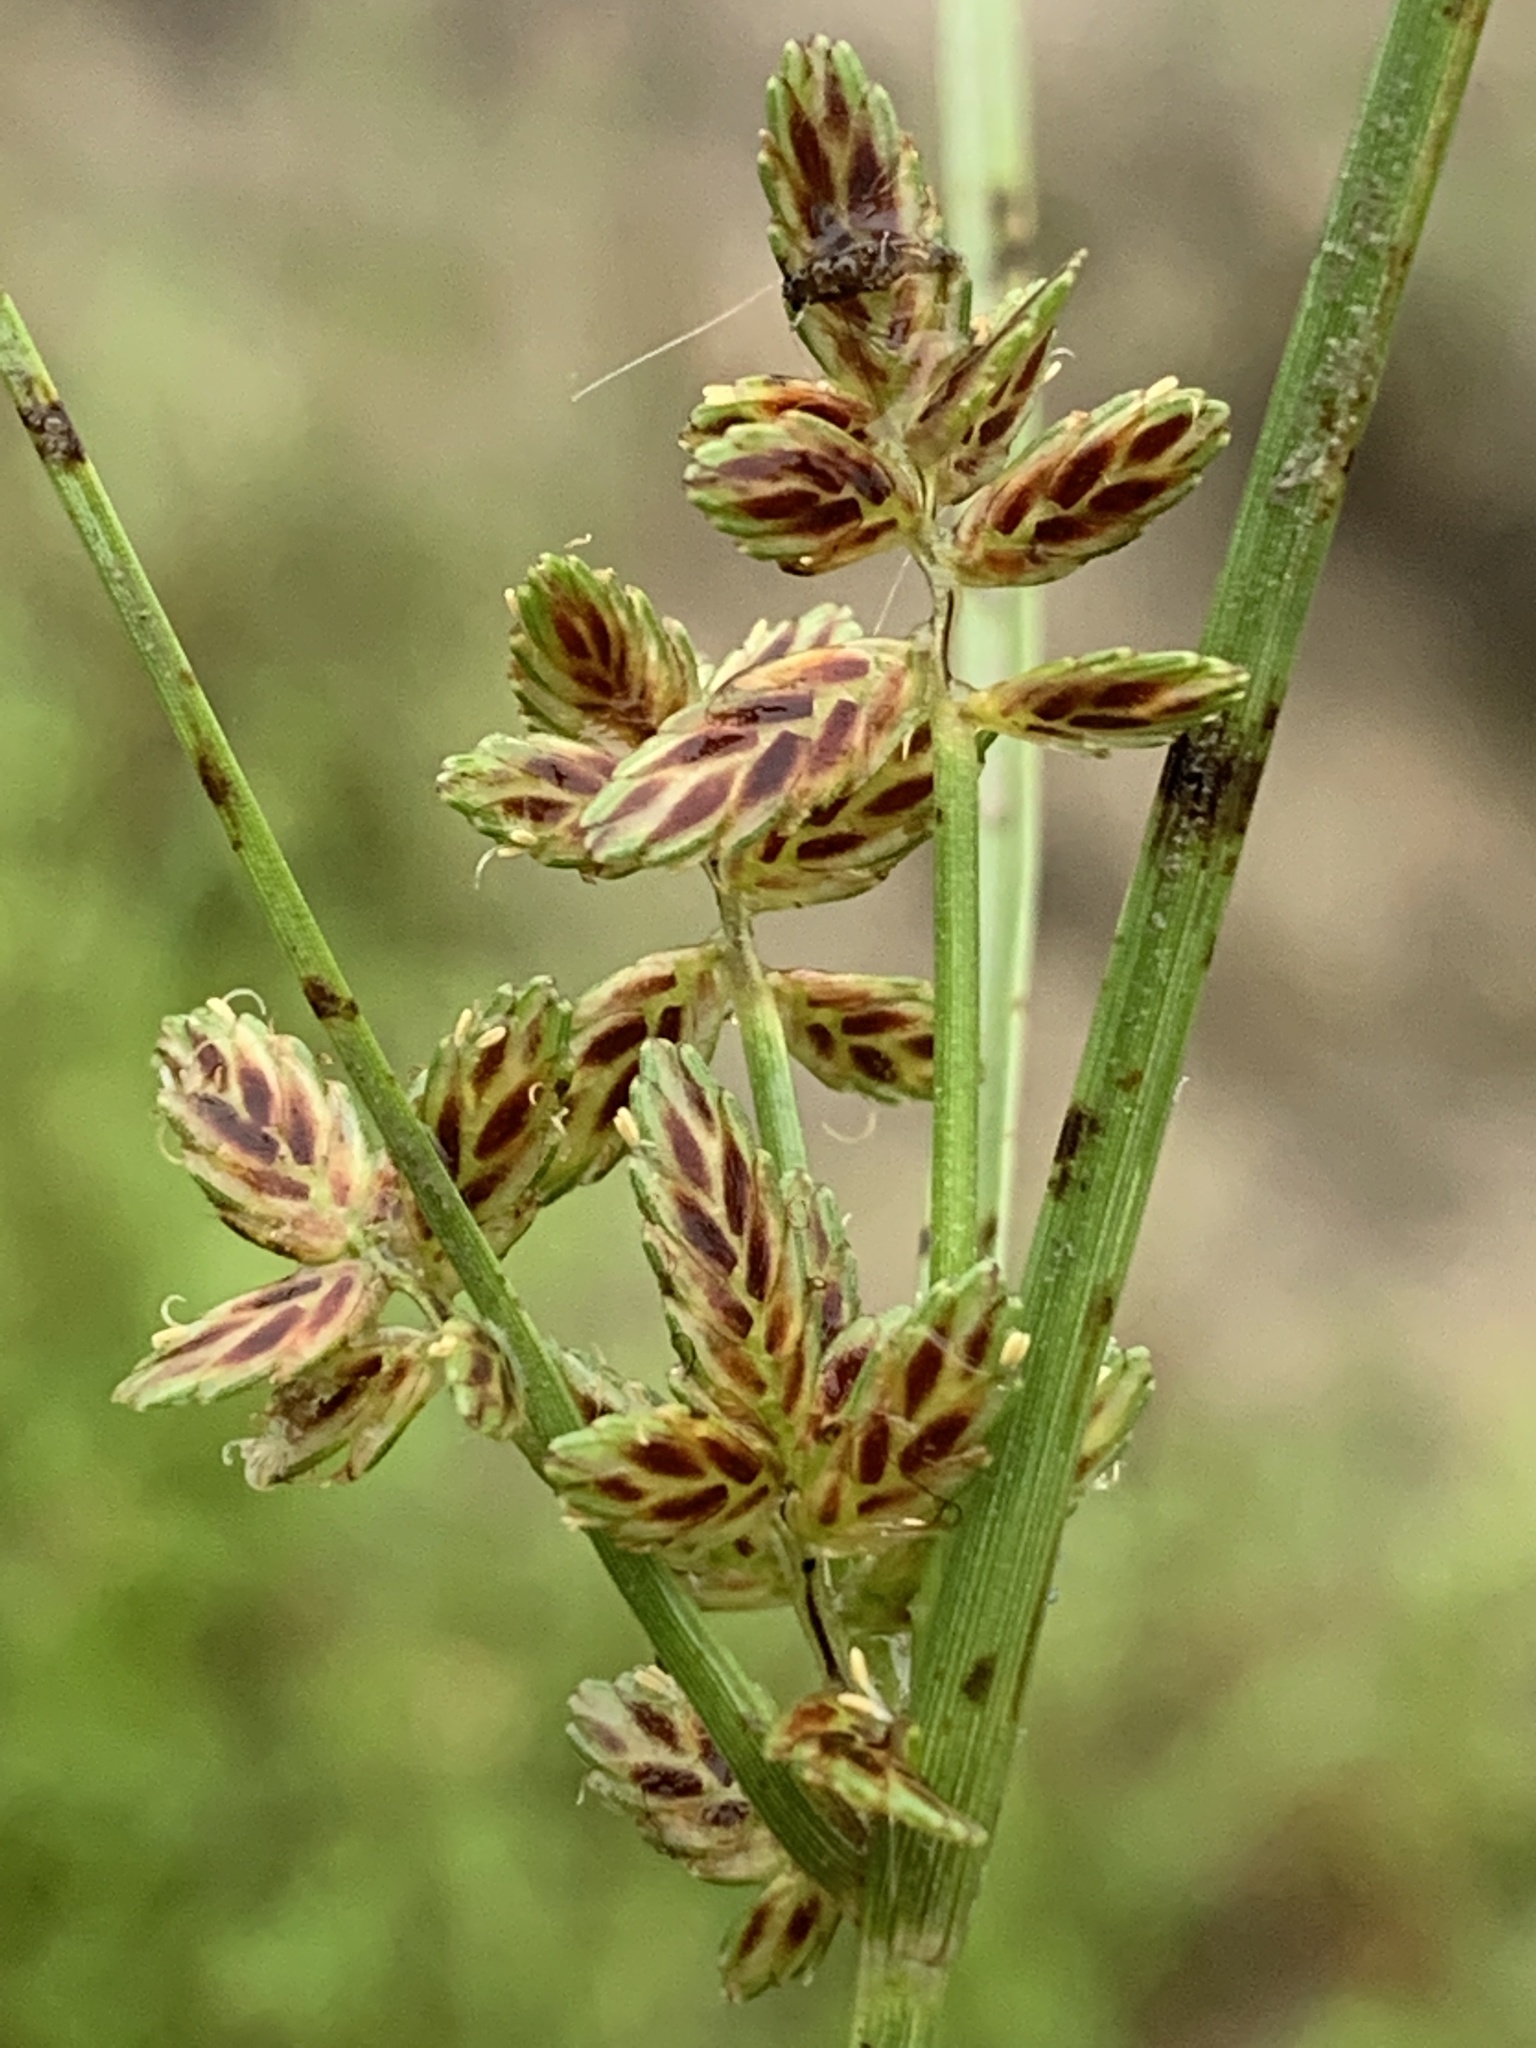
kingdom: Plantae
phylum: Tracheophyta
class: Liliopsida
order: Poales
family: Cyperaceae
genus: Cyperus
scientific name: Cyperus bipartitus
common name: Brook flatsedge
